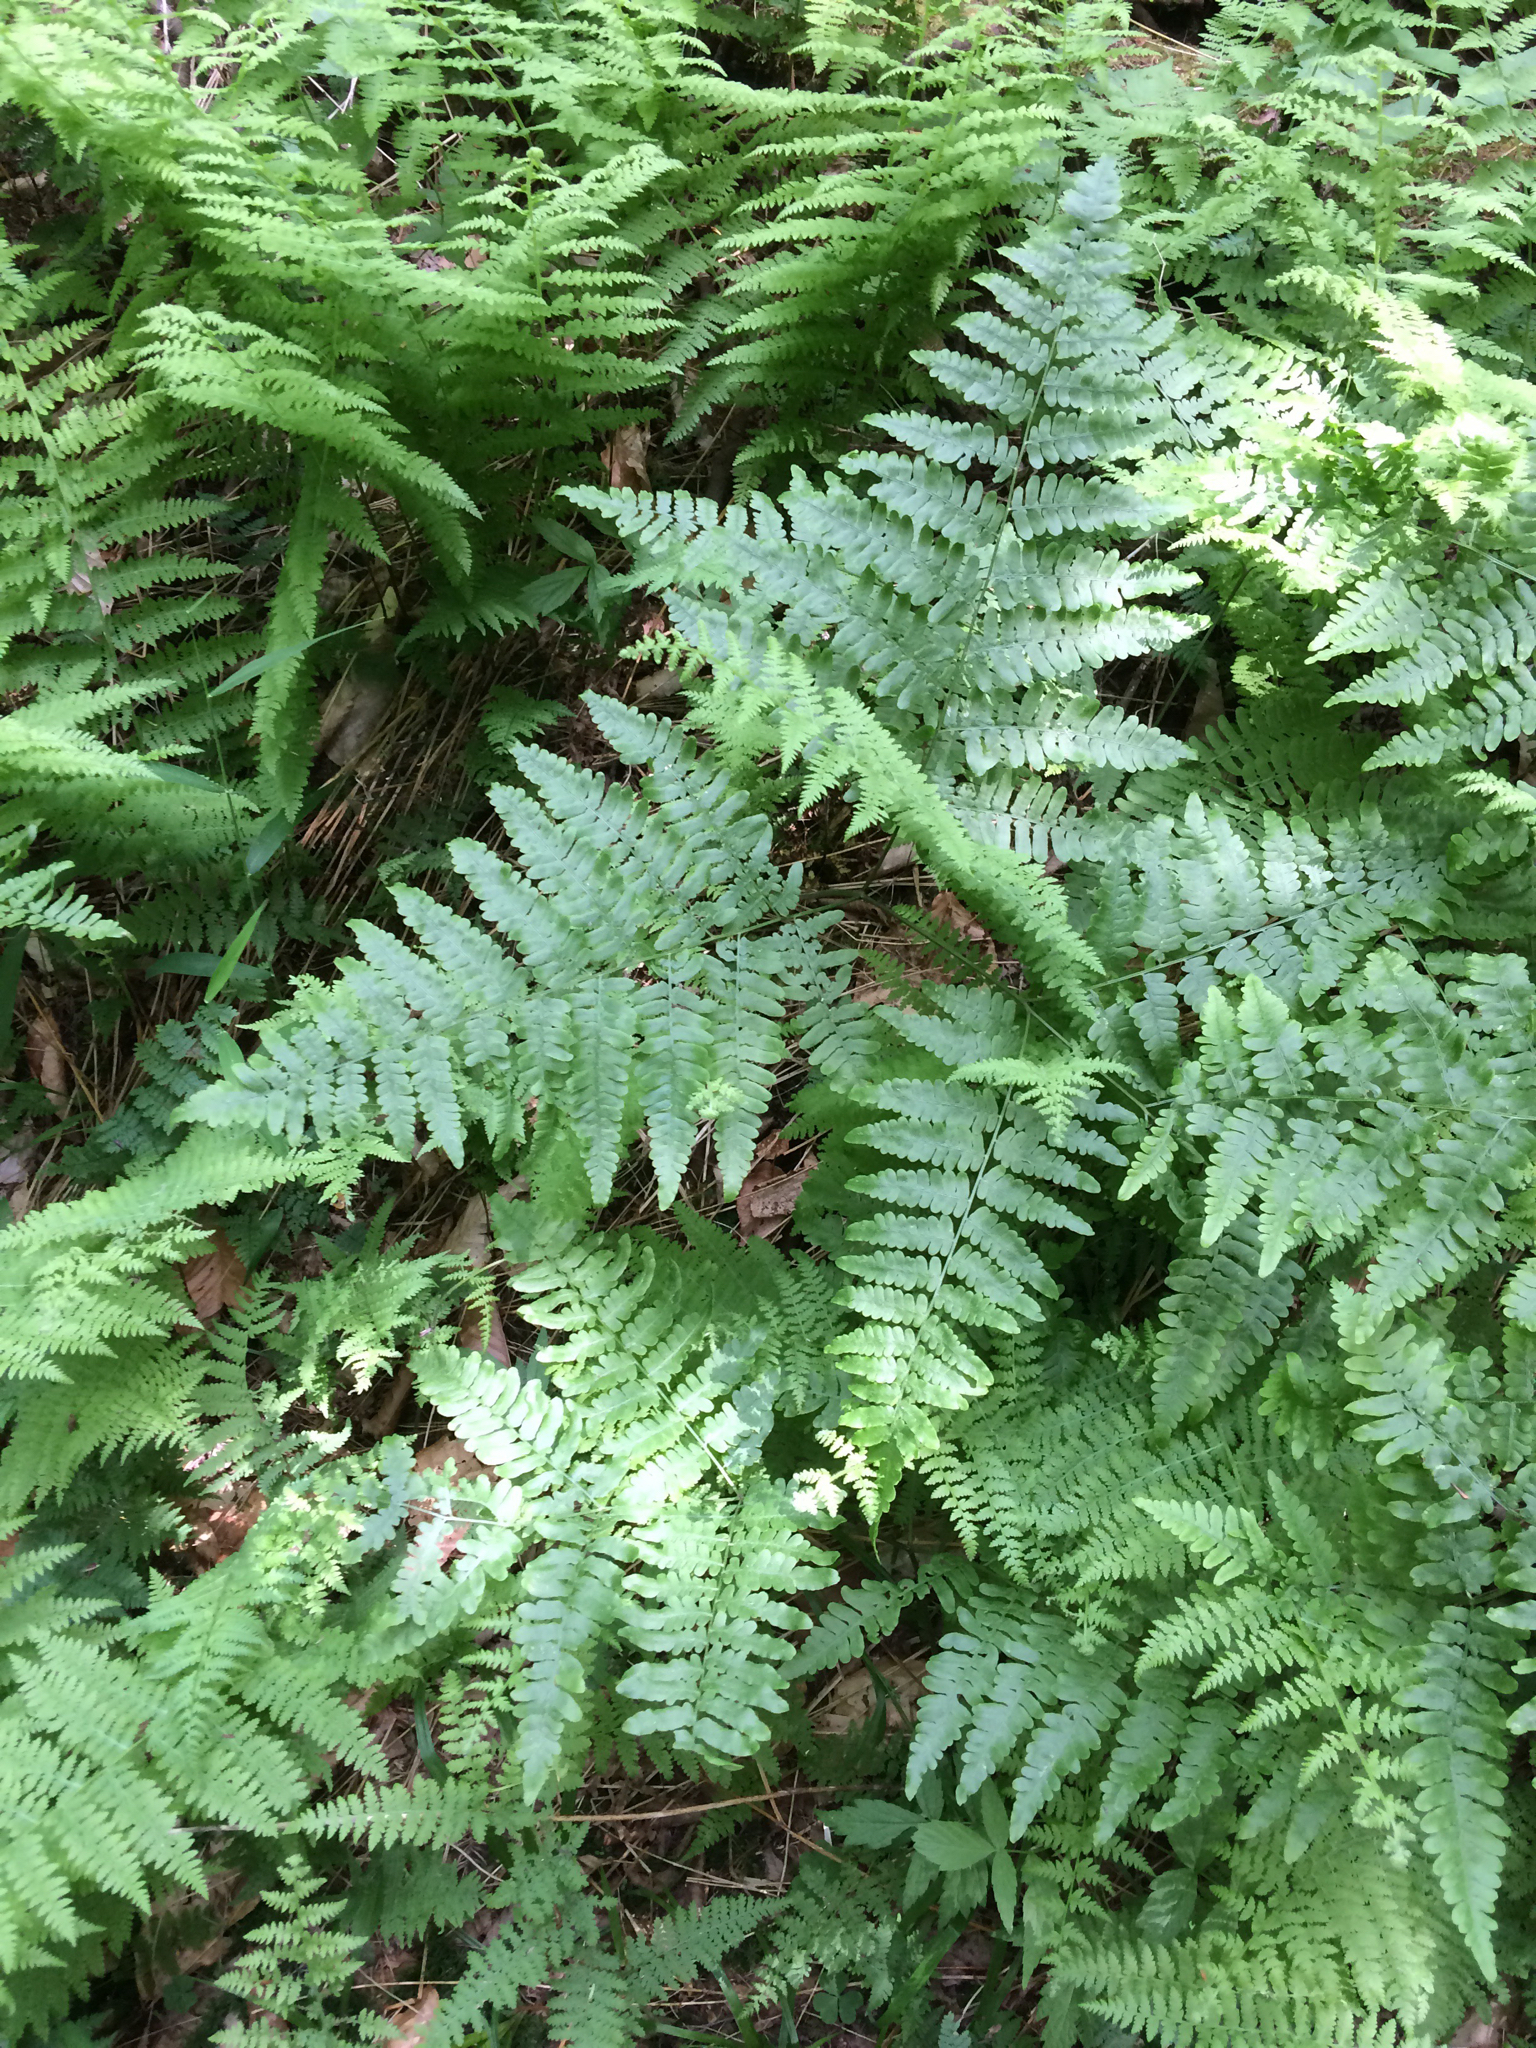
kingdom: Plantae
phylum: Tracheophyta
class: Polypodiopsida
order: Polypodiales
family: Dennstaedtiaceae
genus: Pteridium
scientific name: Pteridium aquilinum
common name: Bracken
